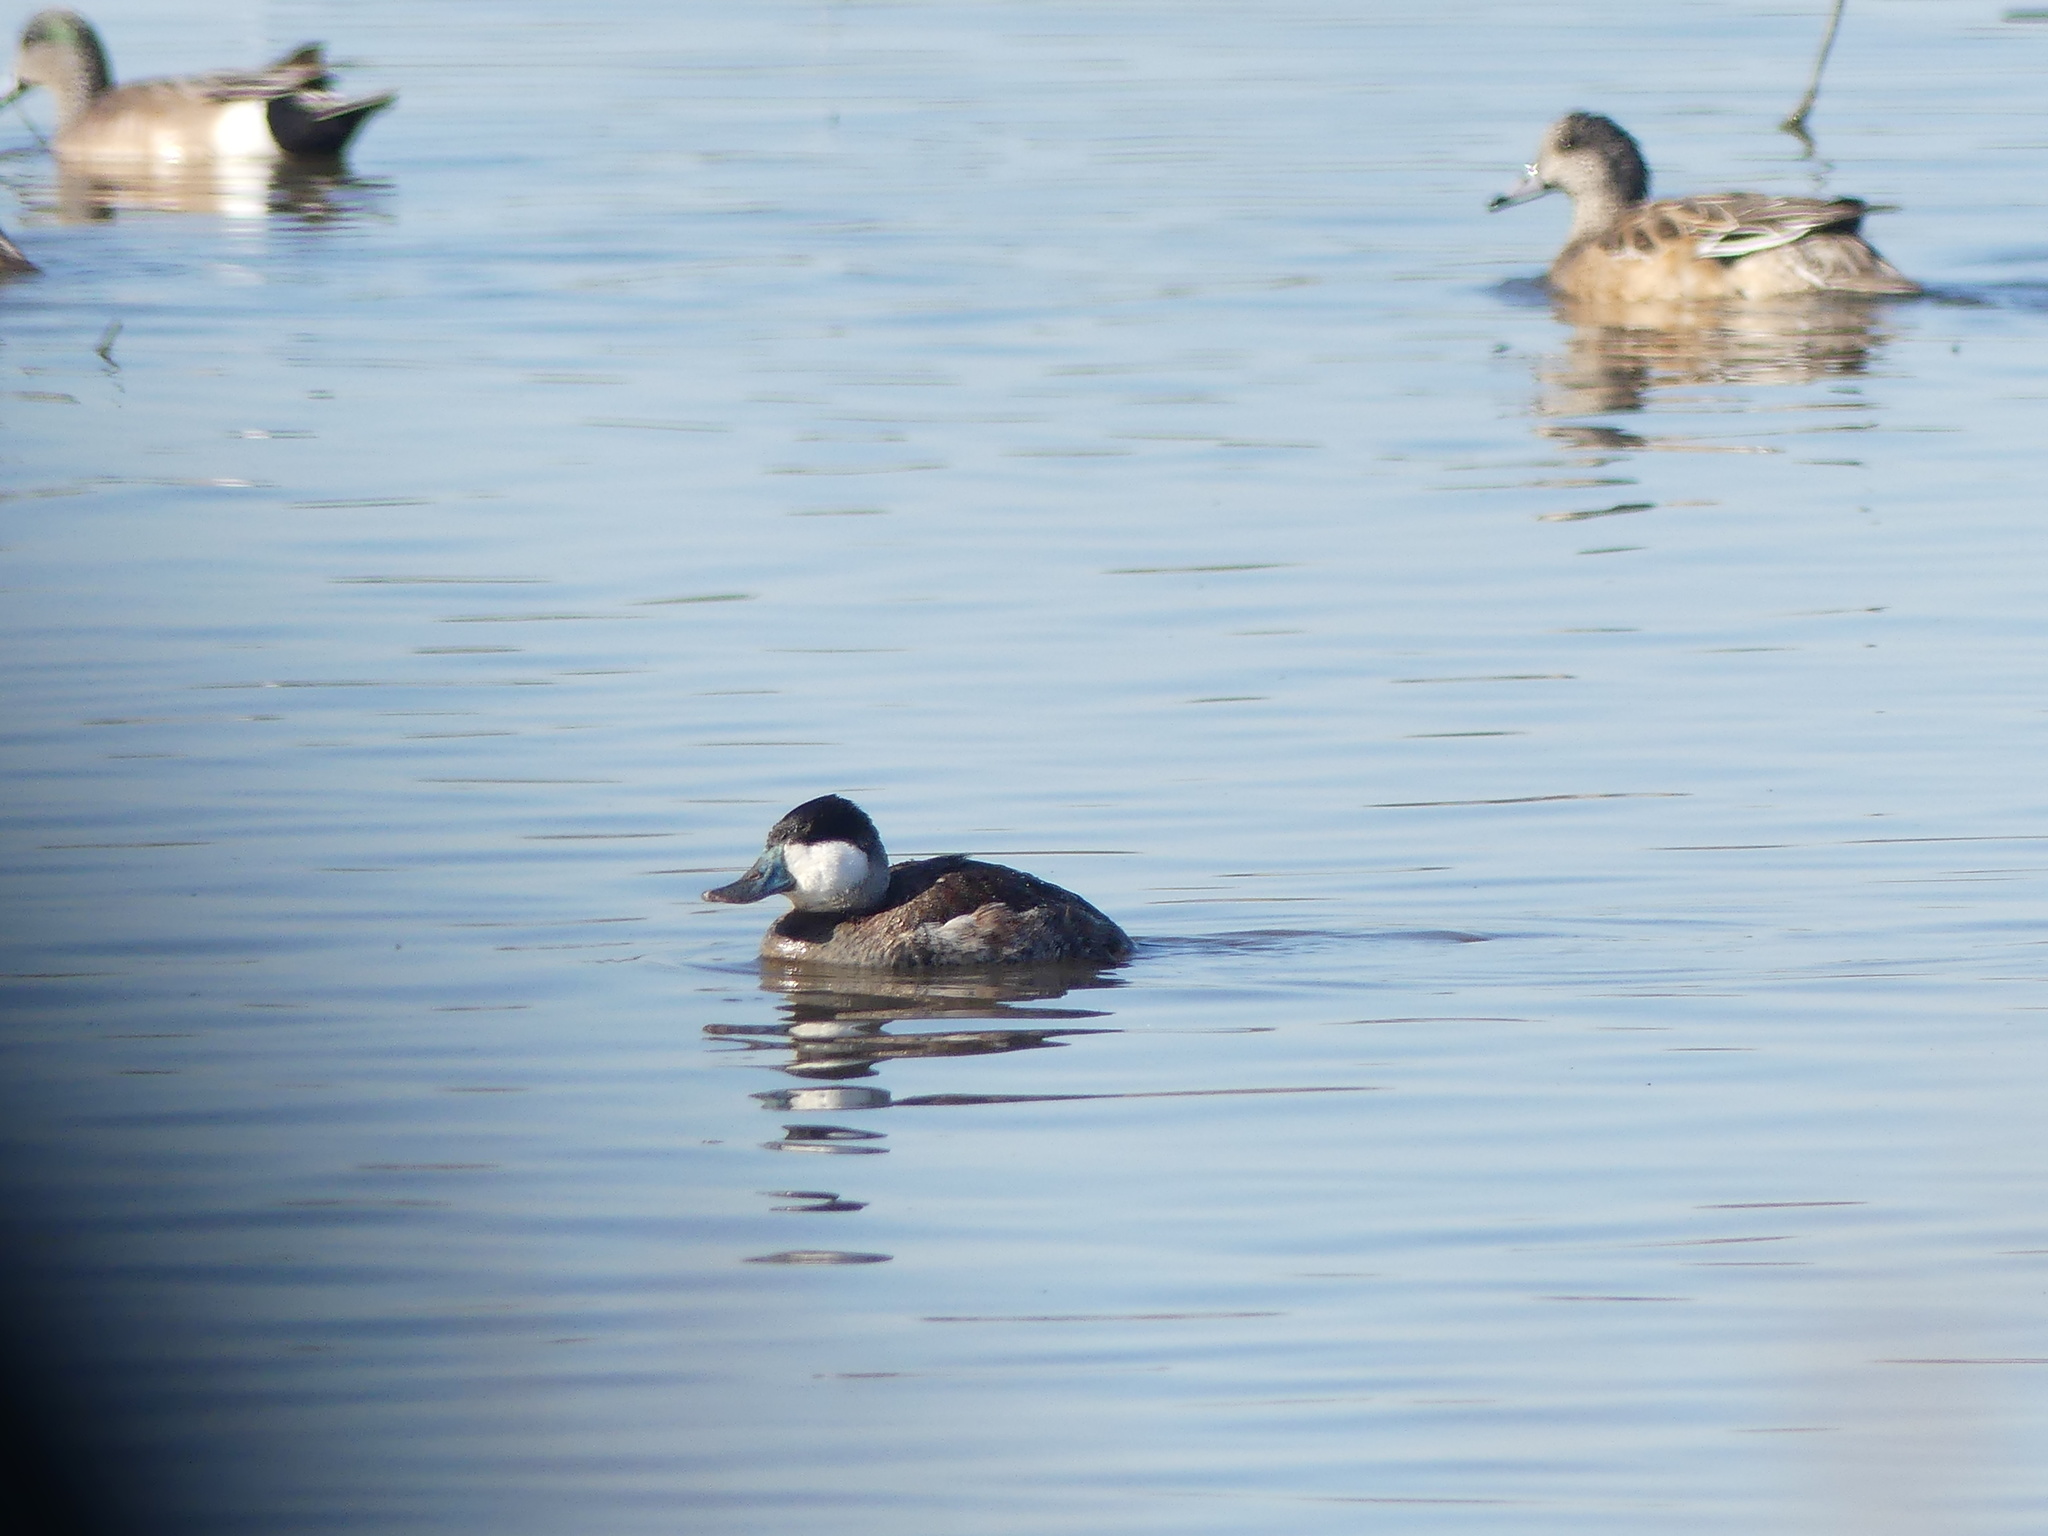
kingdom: Animalia
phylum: Chordata
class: Aves
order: Anseriformes
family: Anatidae
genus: Oxyura
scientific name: Oxyura jamaicensis
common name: Ruddy duck
